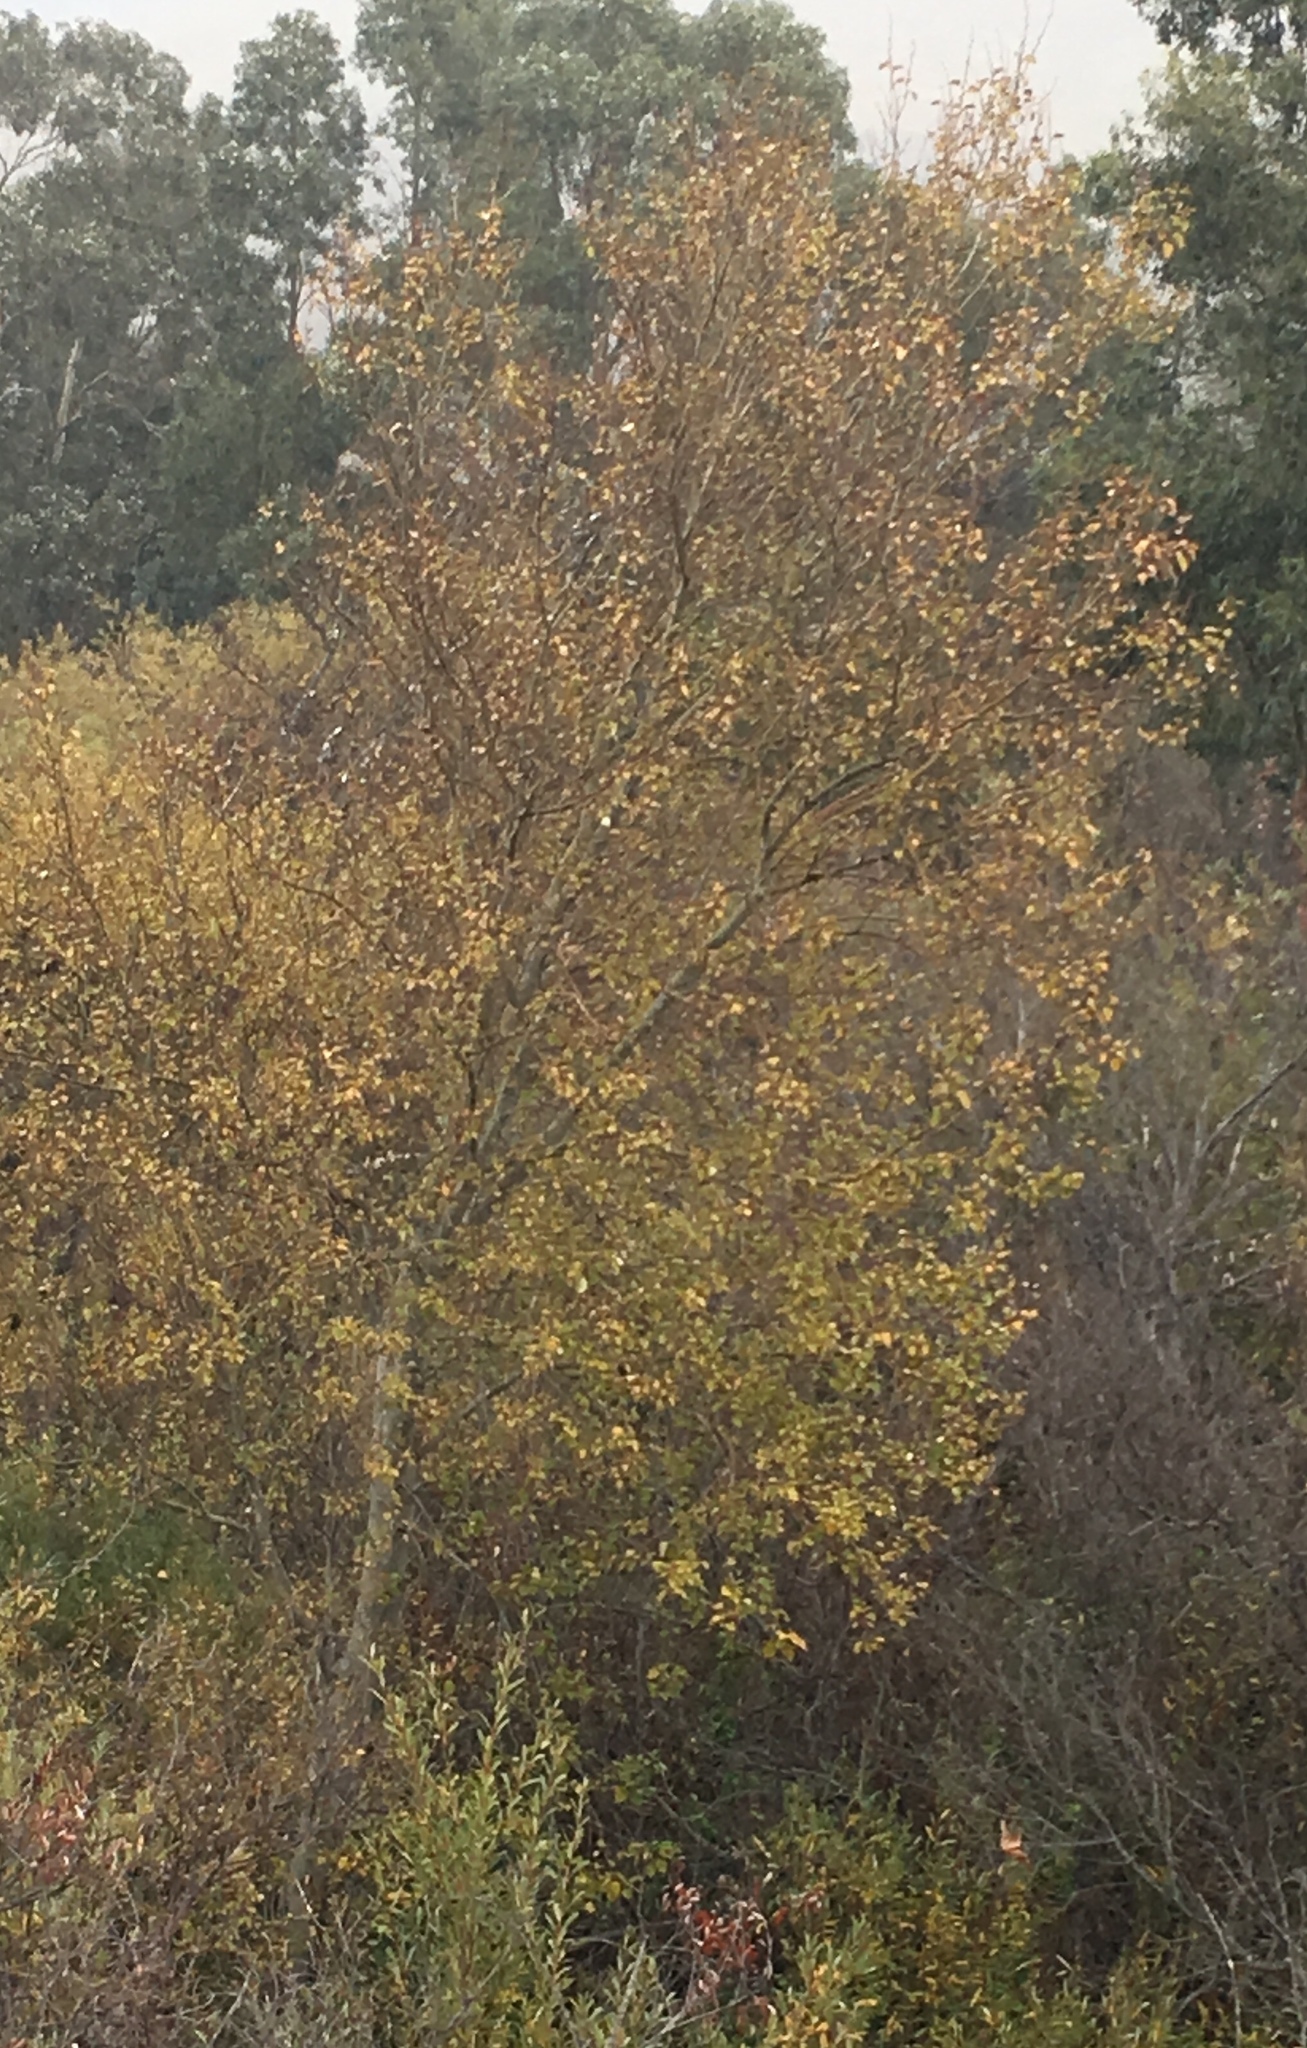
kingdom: Plantae
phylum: Tracheophyta
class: Magnoliopsida
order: Malpighiales
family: Salicaceae
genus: Populus
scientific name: Populus trichocarpa
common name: Black cottonwood
